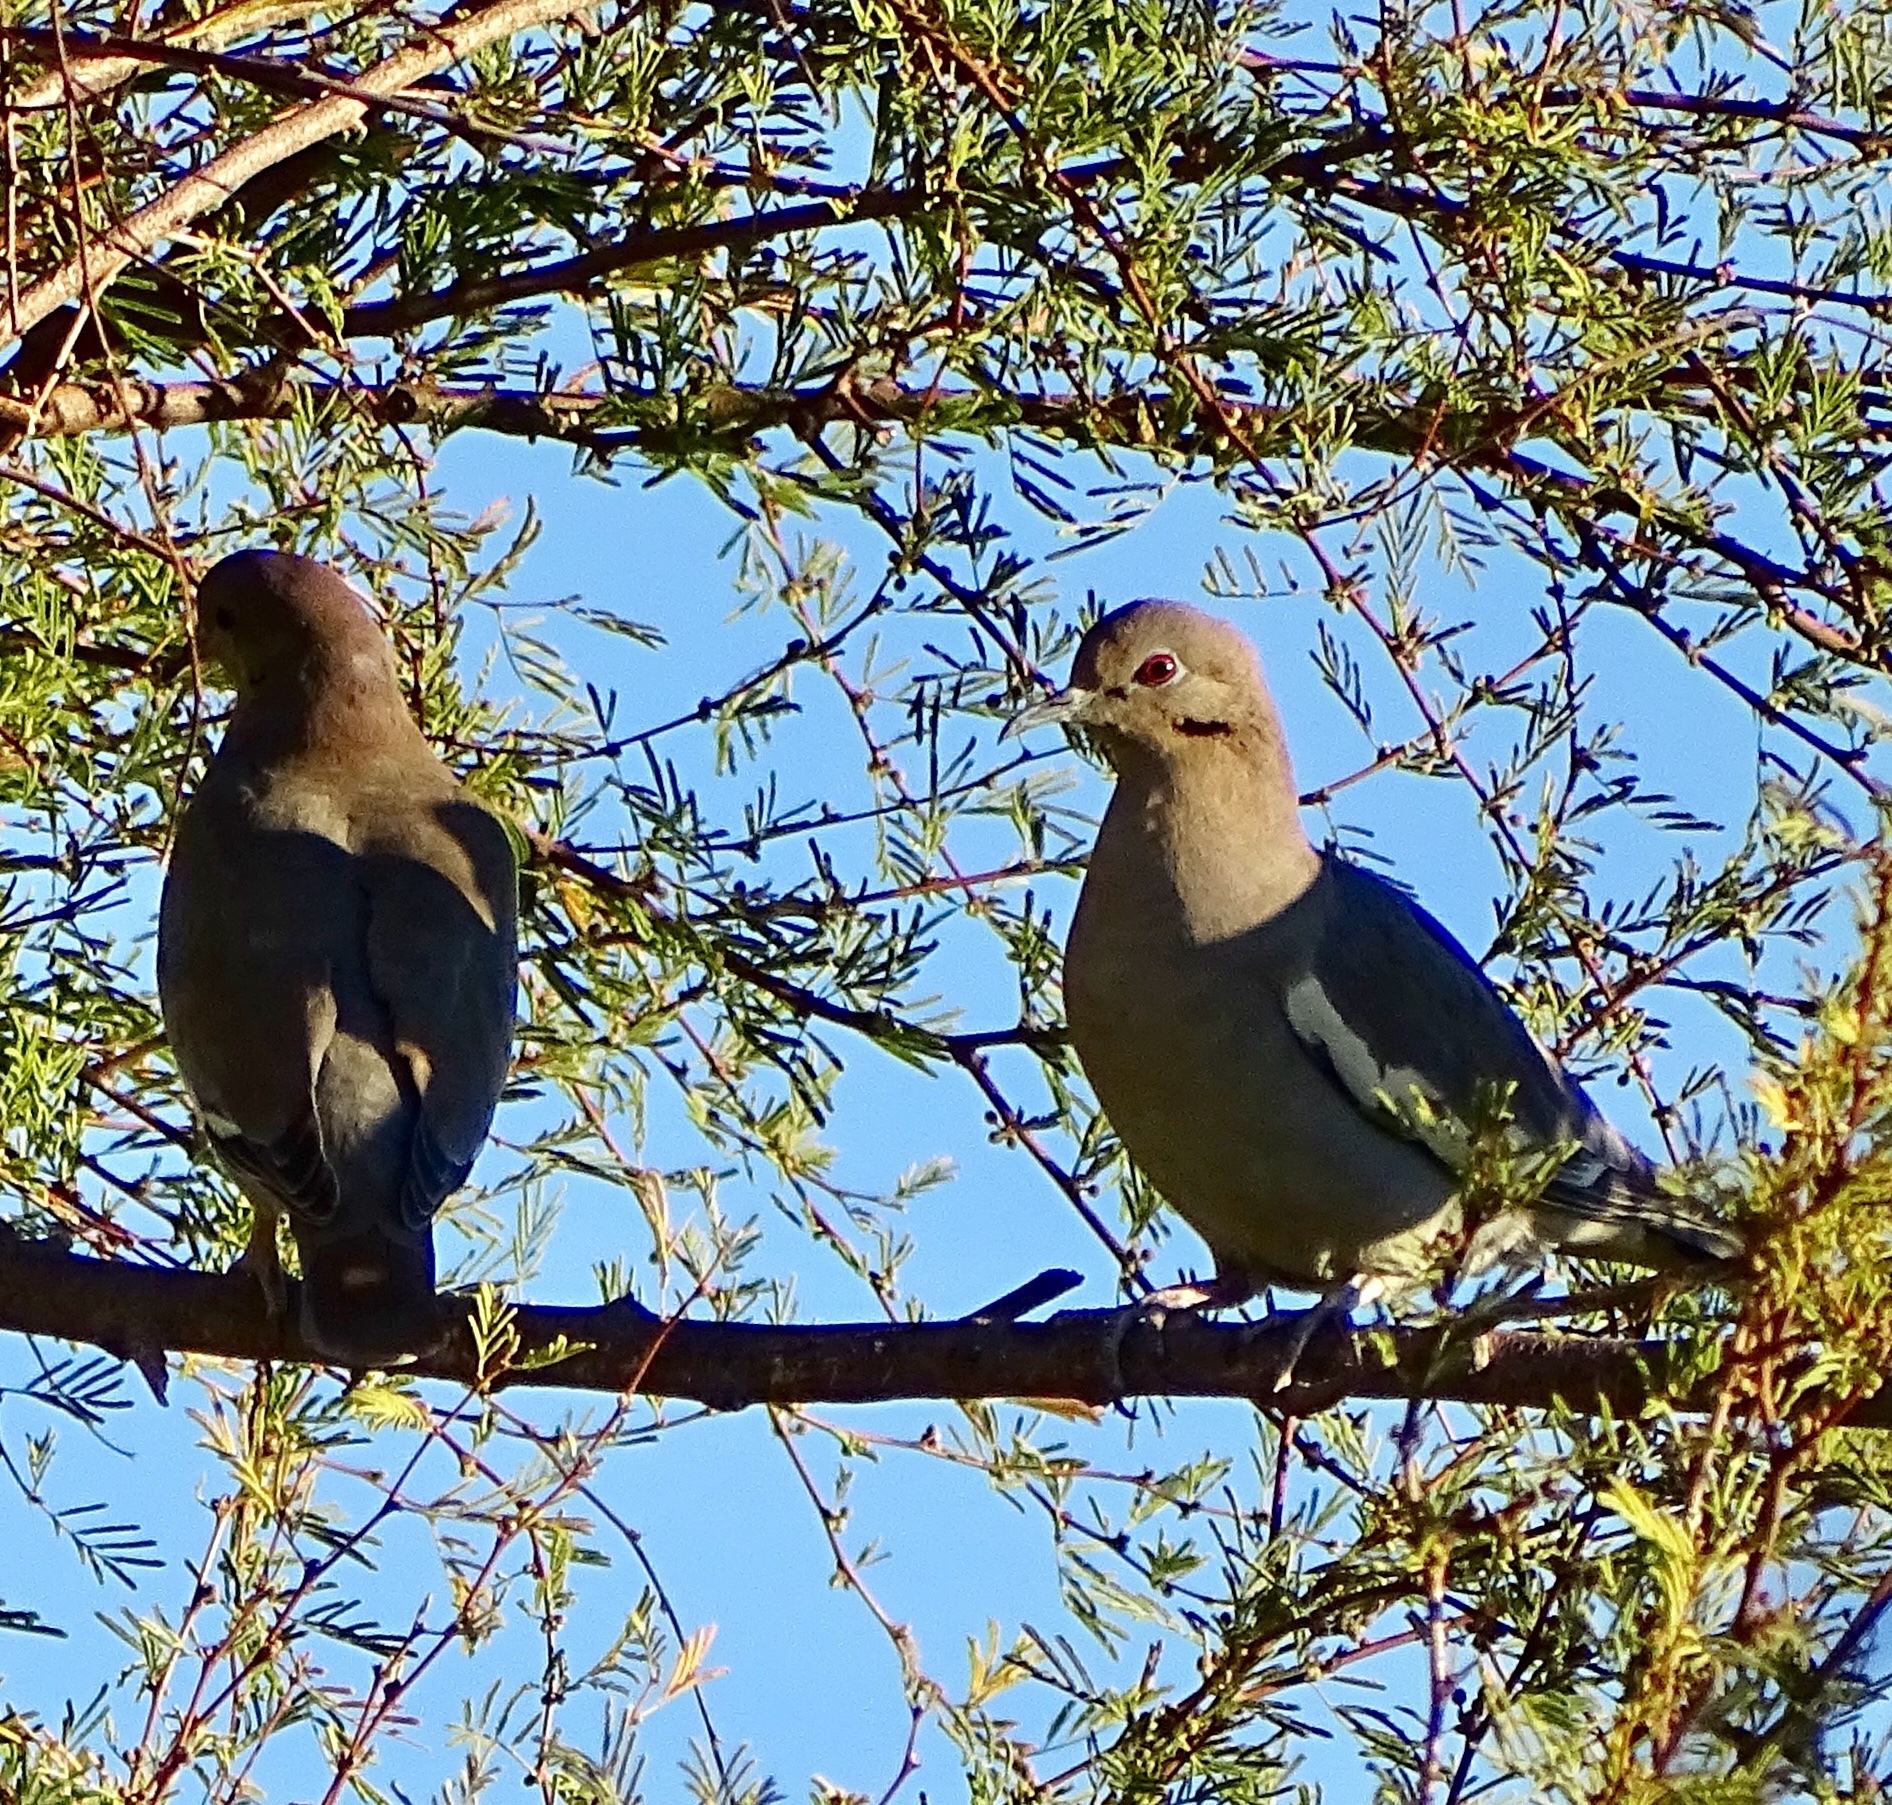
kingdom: Animalia
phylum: Chordata
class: Aves
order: Columbiformes
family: Columbidae
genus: Zenaida
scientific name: Zenaida asiatica
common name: White-winged dove
